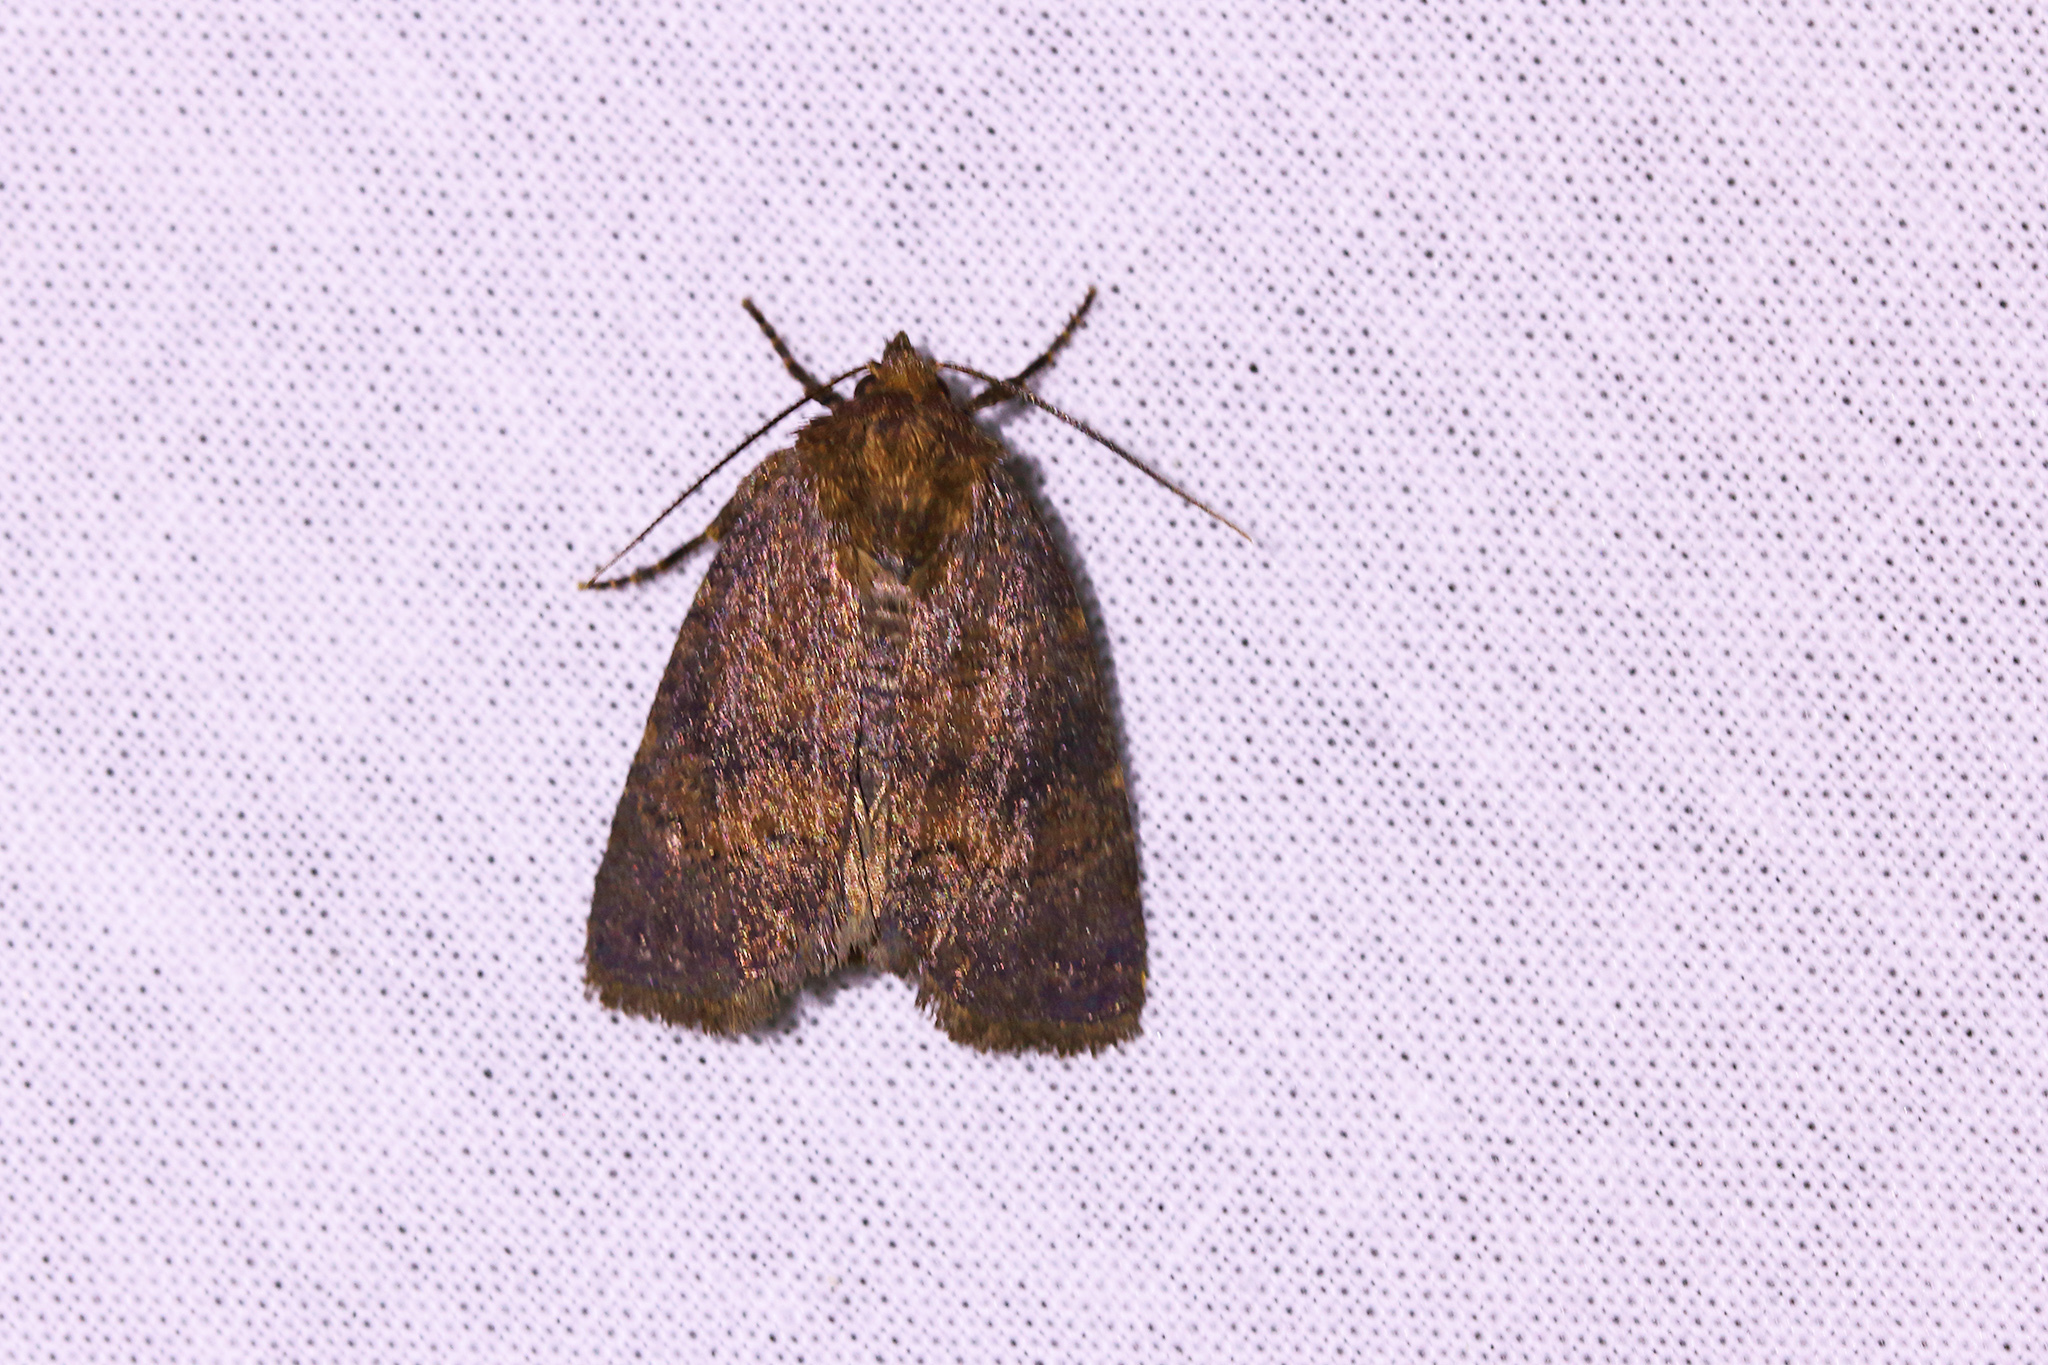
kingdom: Animalia
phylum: Arthropoda
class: Insecta
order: Lepidoptera
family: Noctuidae
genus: Charanyca
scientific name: Charanyca ferruginea
